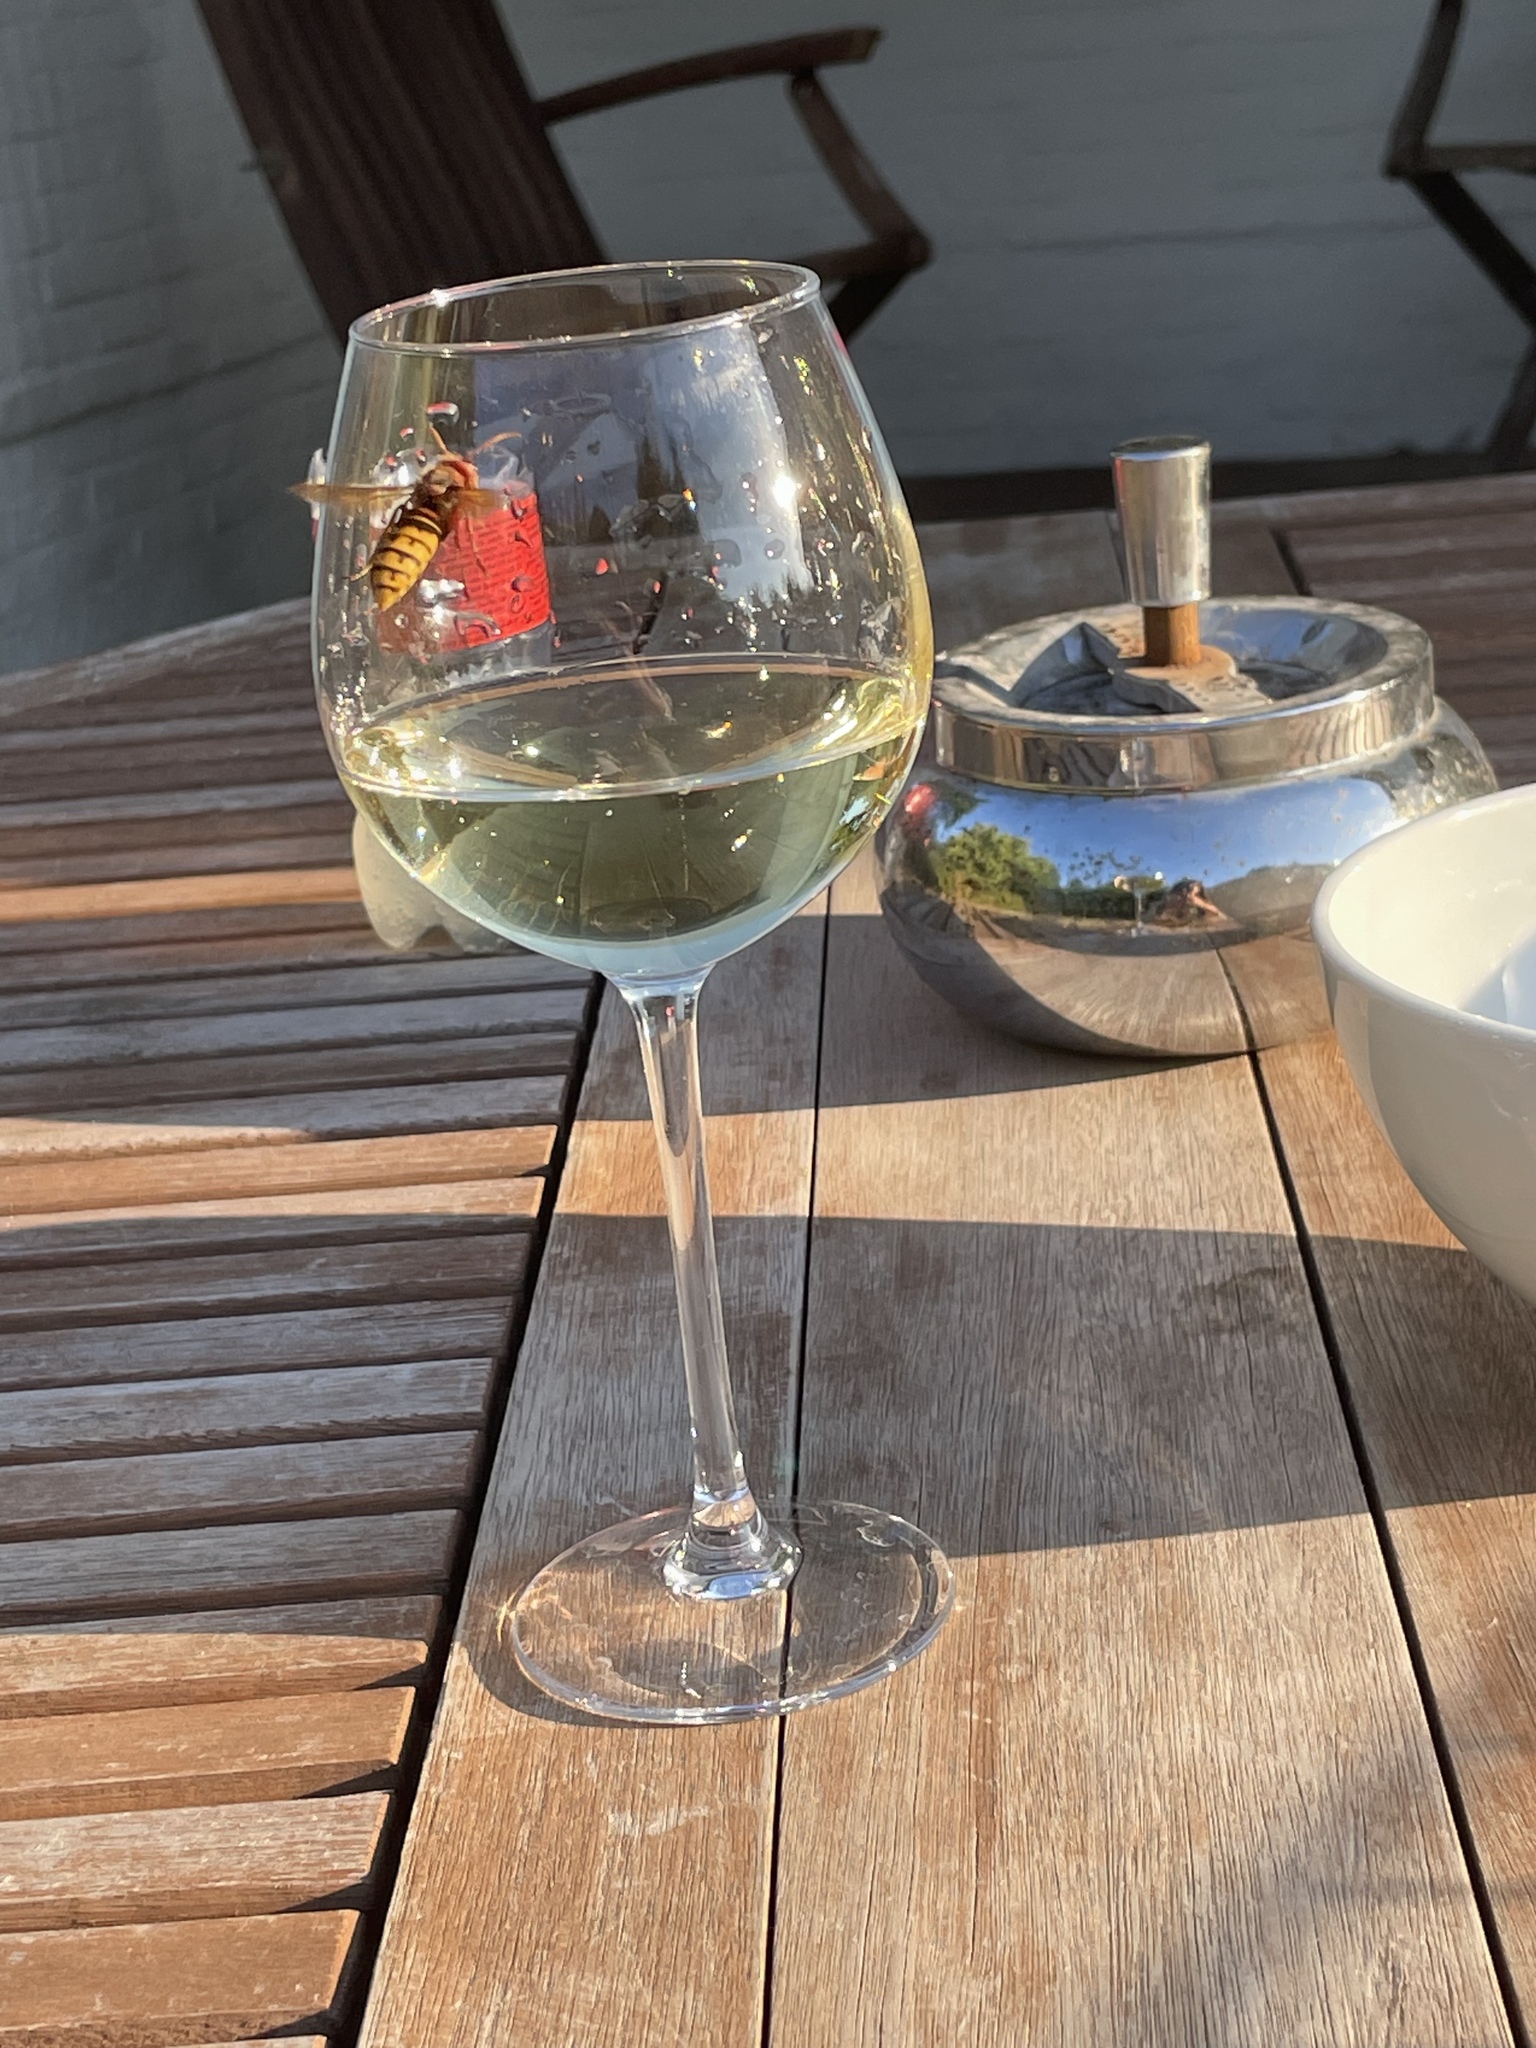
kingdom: Animalia
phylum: Arthropoda
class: Insecta
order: Hymenoptera
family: Vespidae
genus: Vespa
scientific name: Vespa crabro
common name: Hornet
